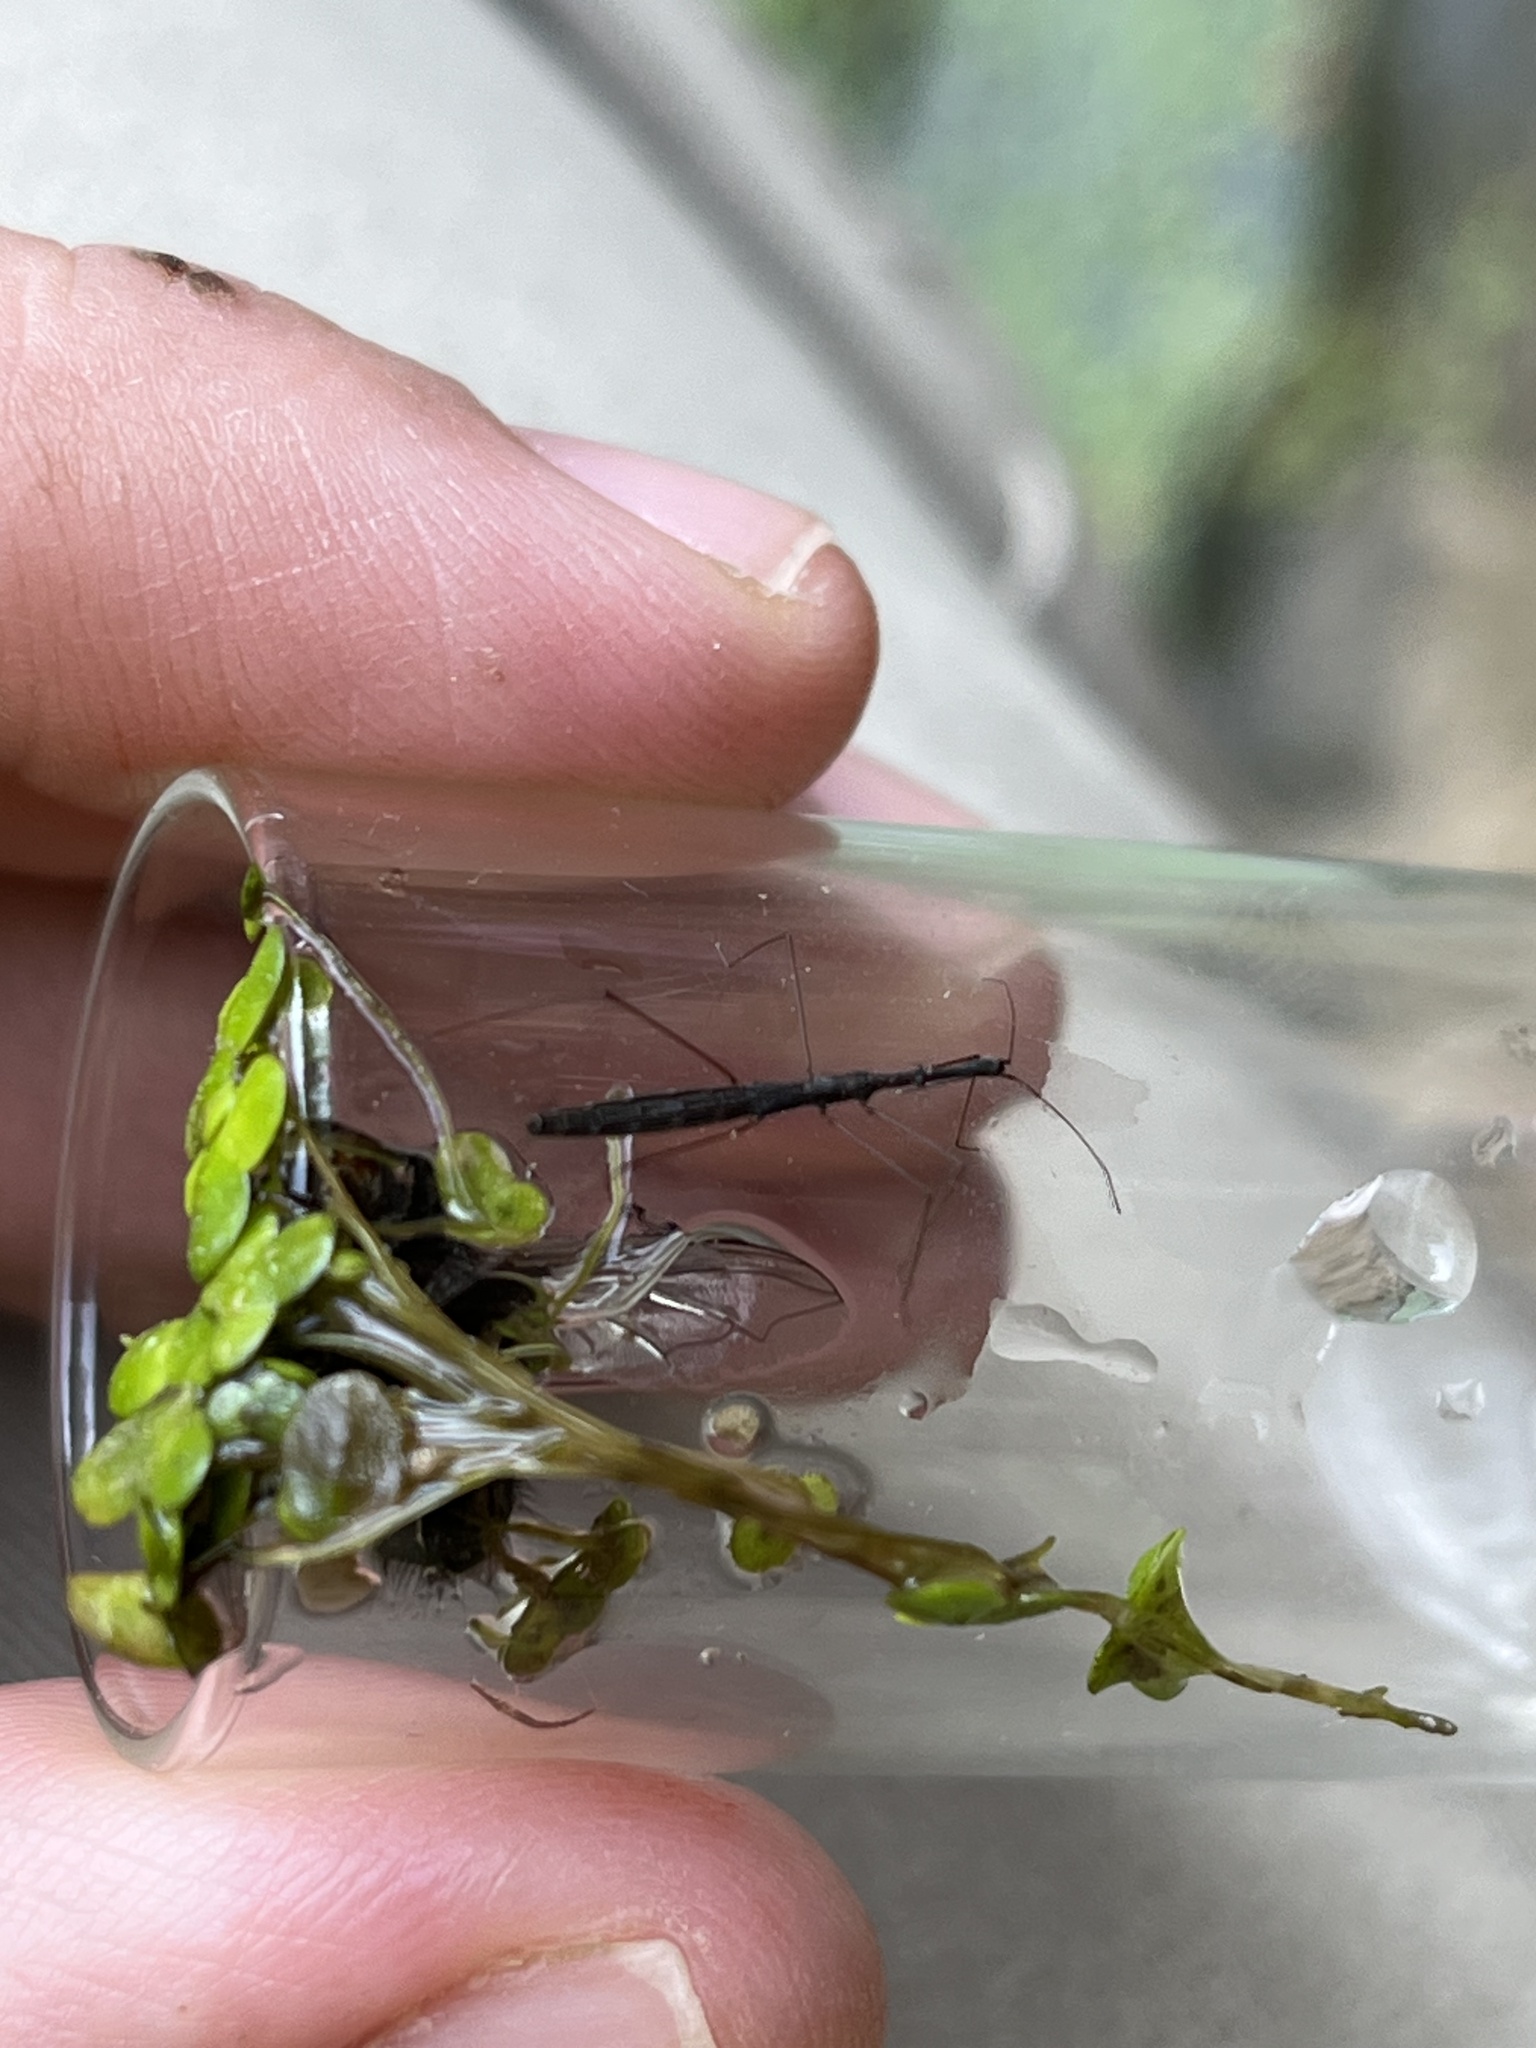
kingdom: Animalia
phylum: Arthropoda
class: Insecta
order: Hemiptera
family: Hydrometridae
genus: Hydrometra
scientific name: Hydrometra stagnorum
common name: Water measurer
